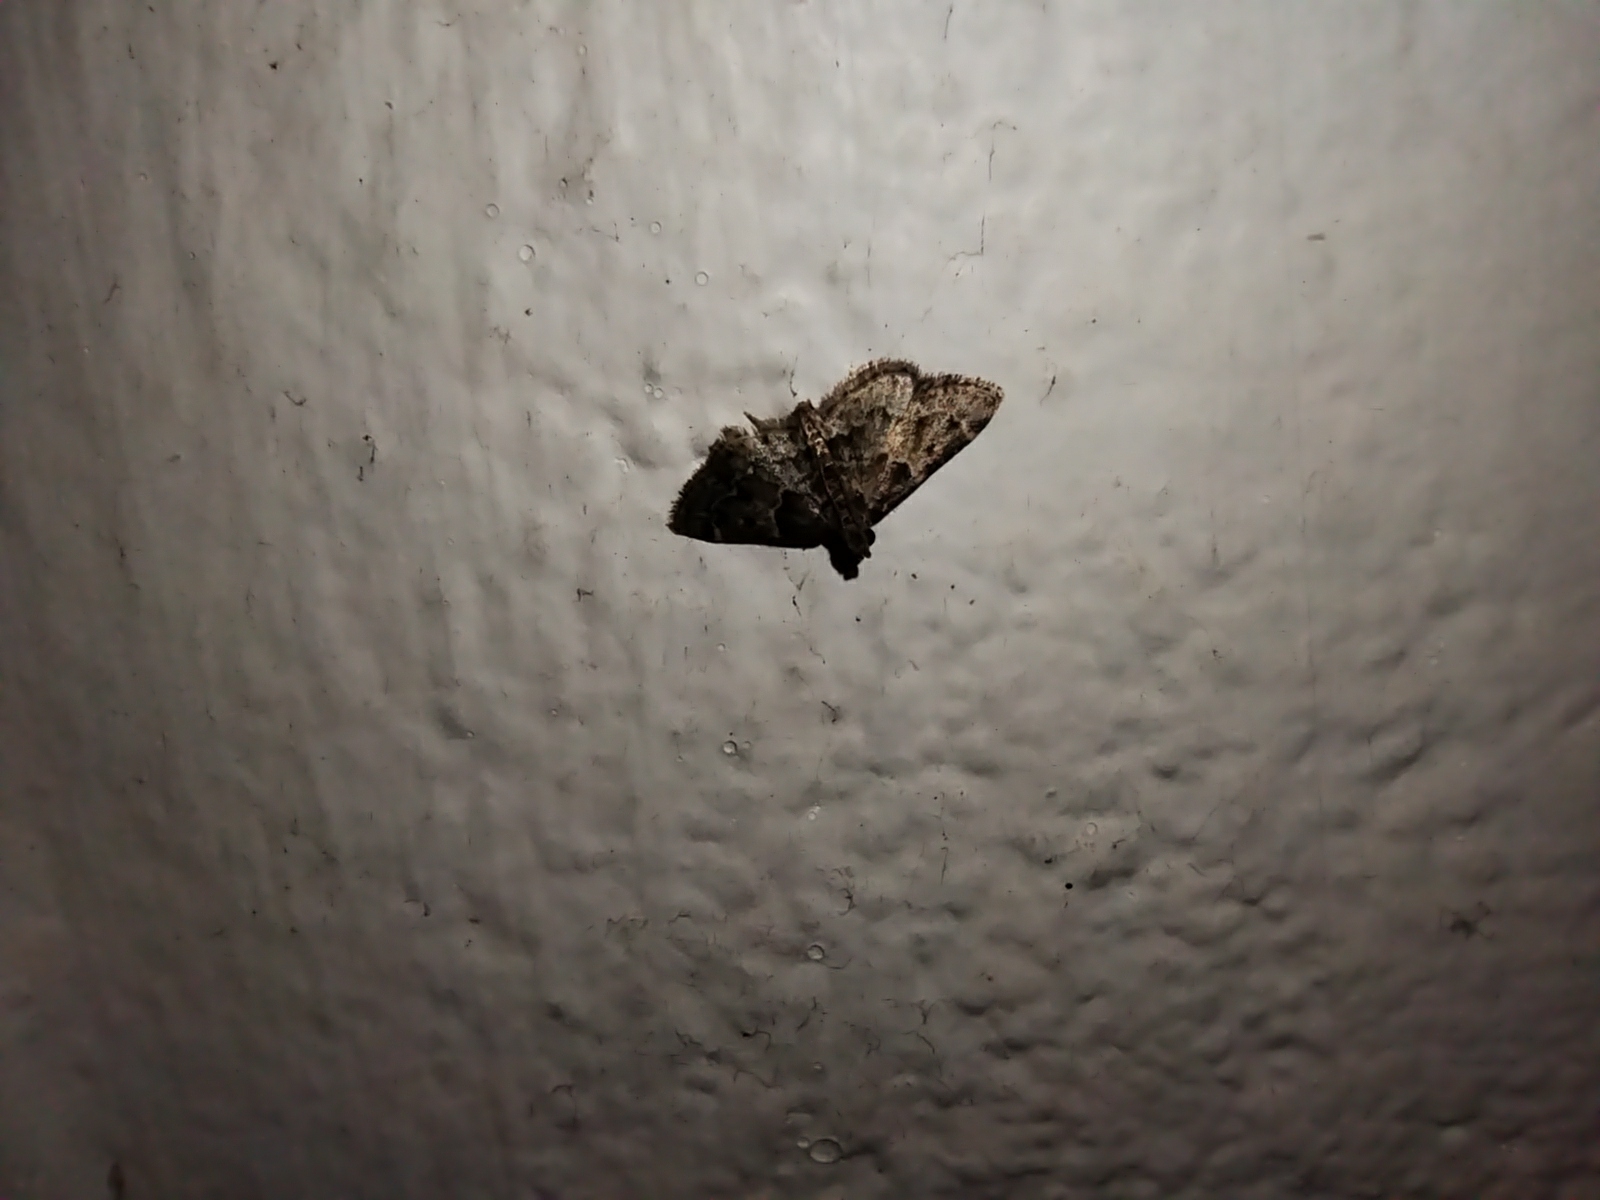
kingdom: Animalia
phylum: Arthropoda
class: Insecta
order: Lepidoptera
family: Pyralidae
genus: Pyralis
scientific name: Pyralis manihotalis
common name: Moth
